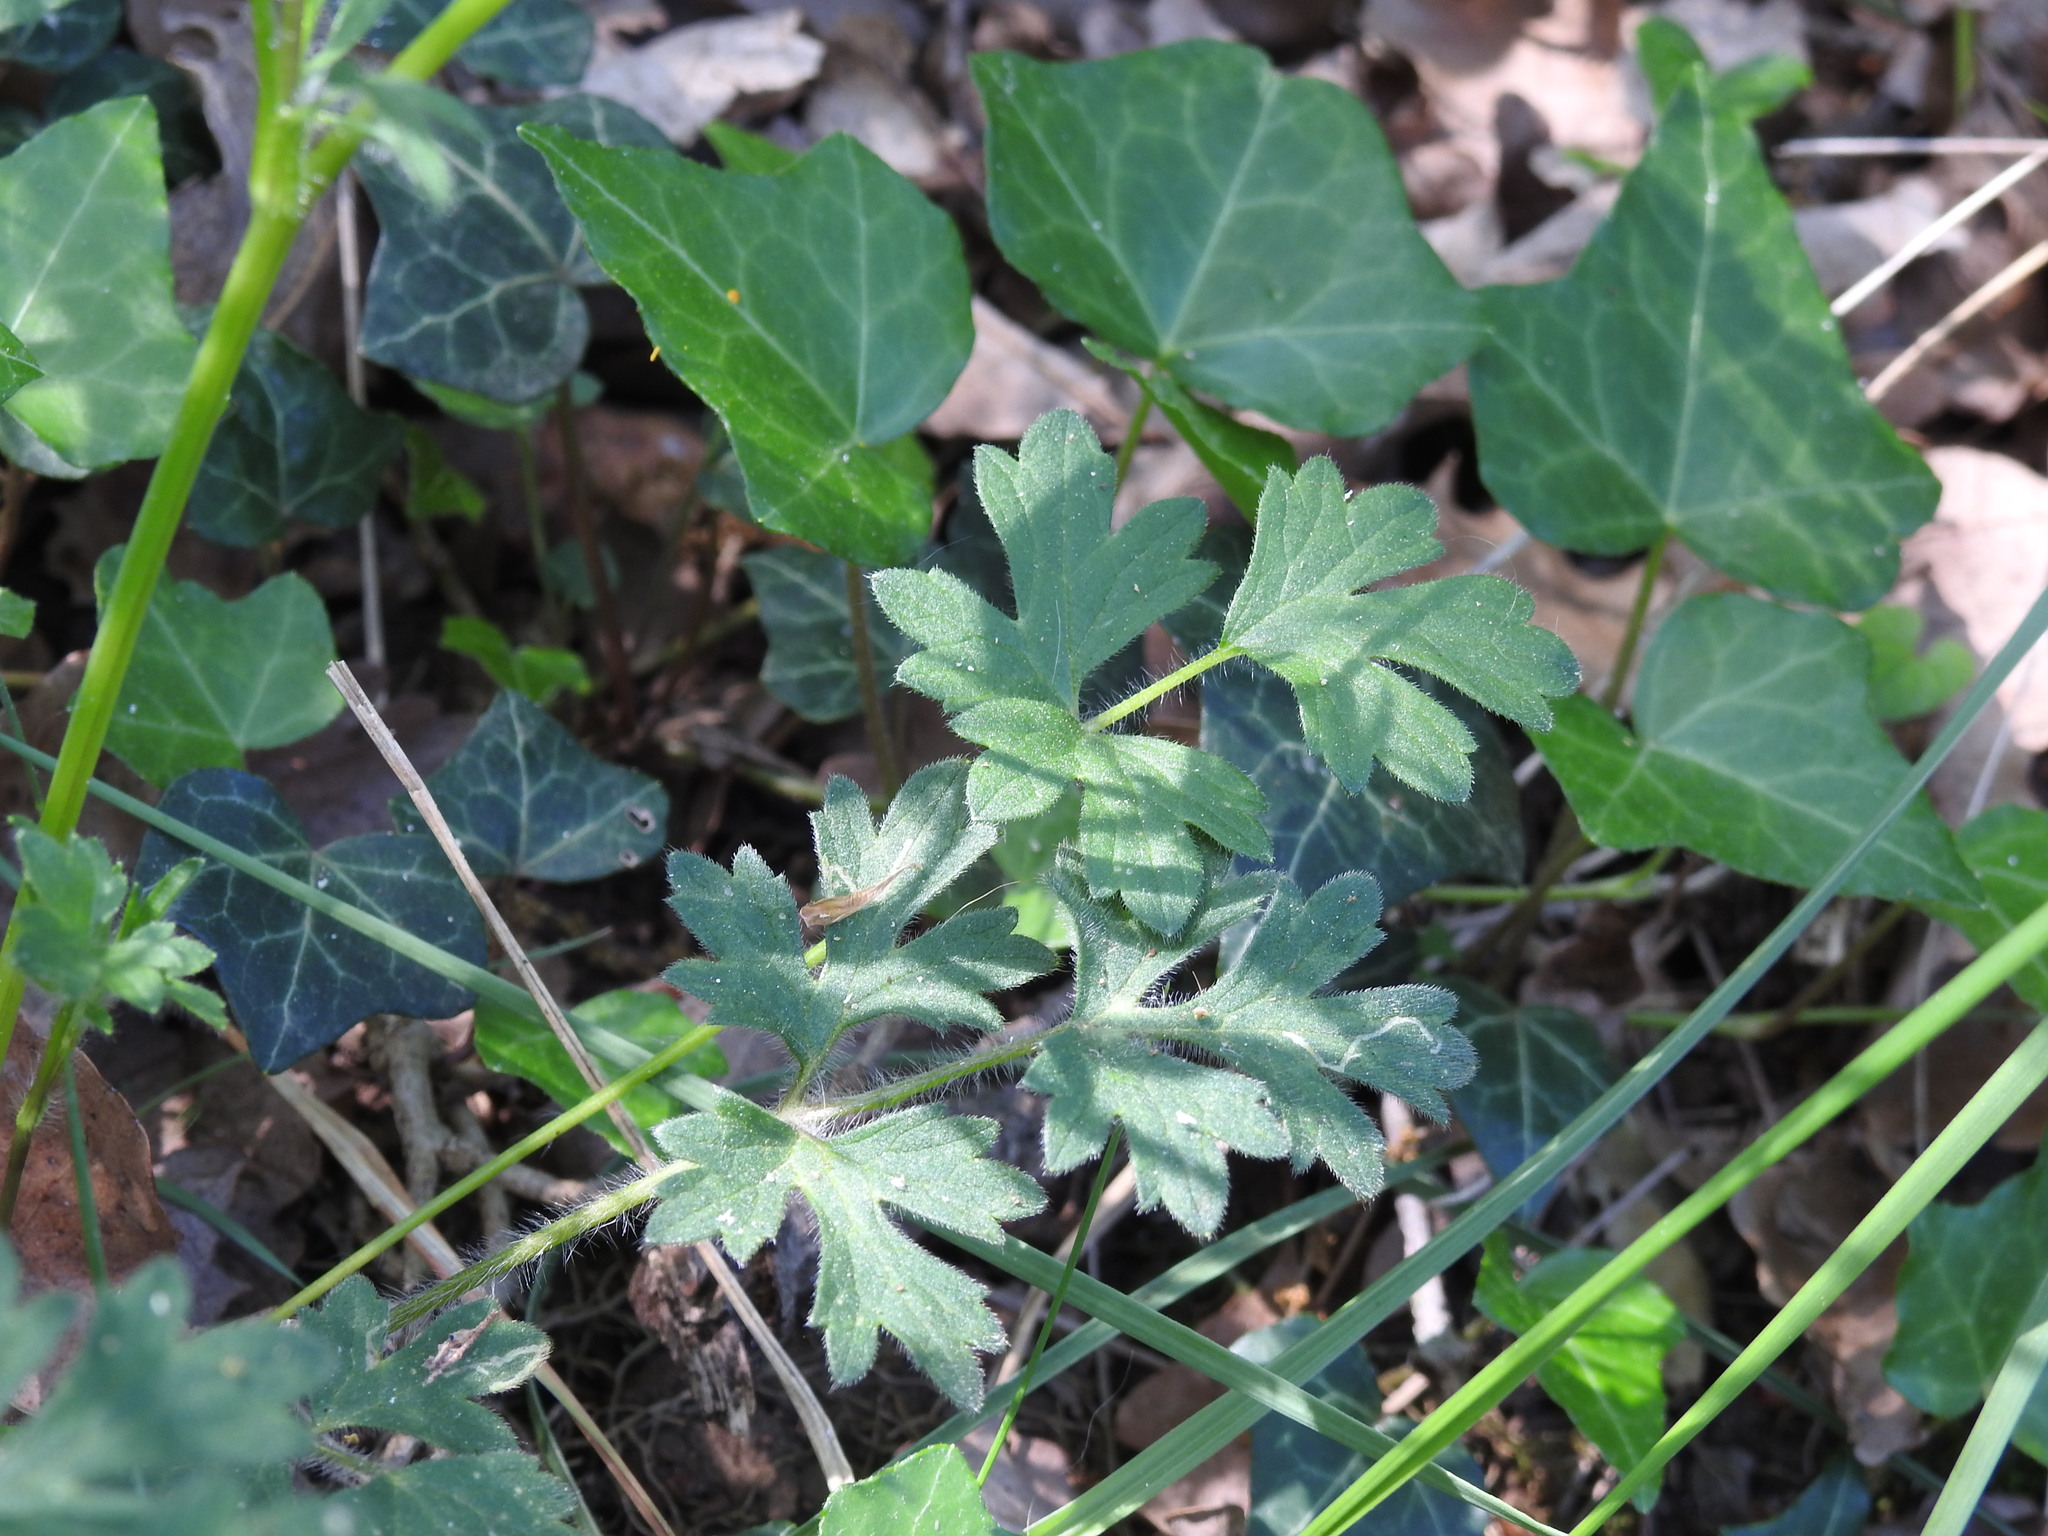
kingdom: Plantae
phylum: Tracheophyta
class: Magnoliopsida
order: Ranunculales
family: Ranunculaceae
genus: Ranunculus
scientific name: Ranunculus bulbosus
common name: Bulbous buttercup
